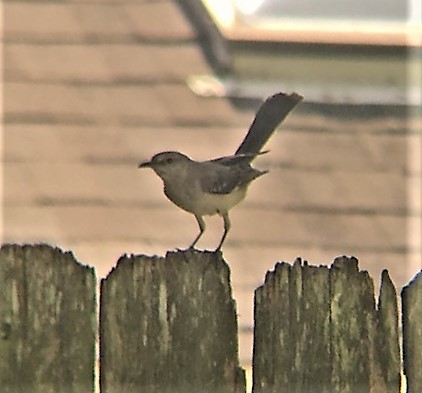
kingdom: Animalia
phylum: Chordata
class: Aves
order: Passeriformes
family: Mimidae
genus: Mimus
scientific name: Mimus polyglottos
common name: Northern mockingbird
